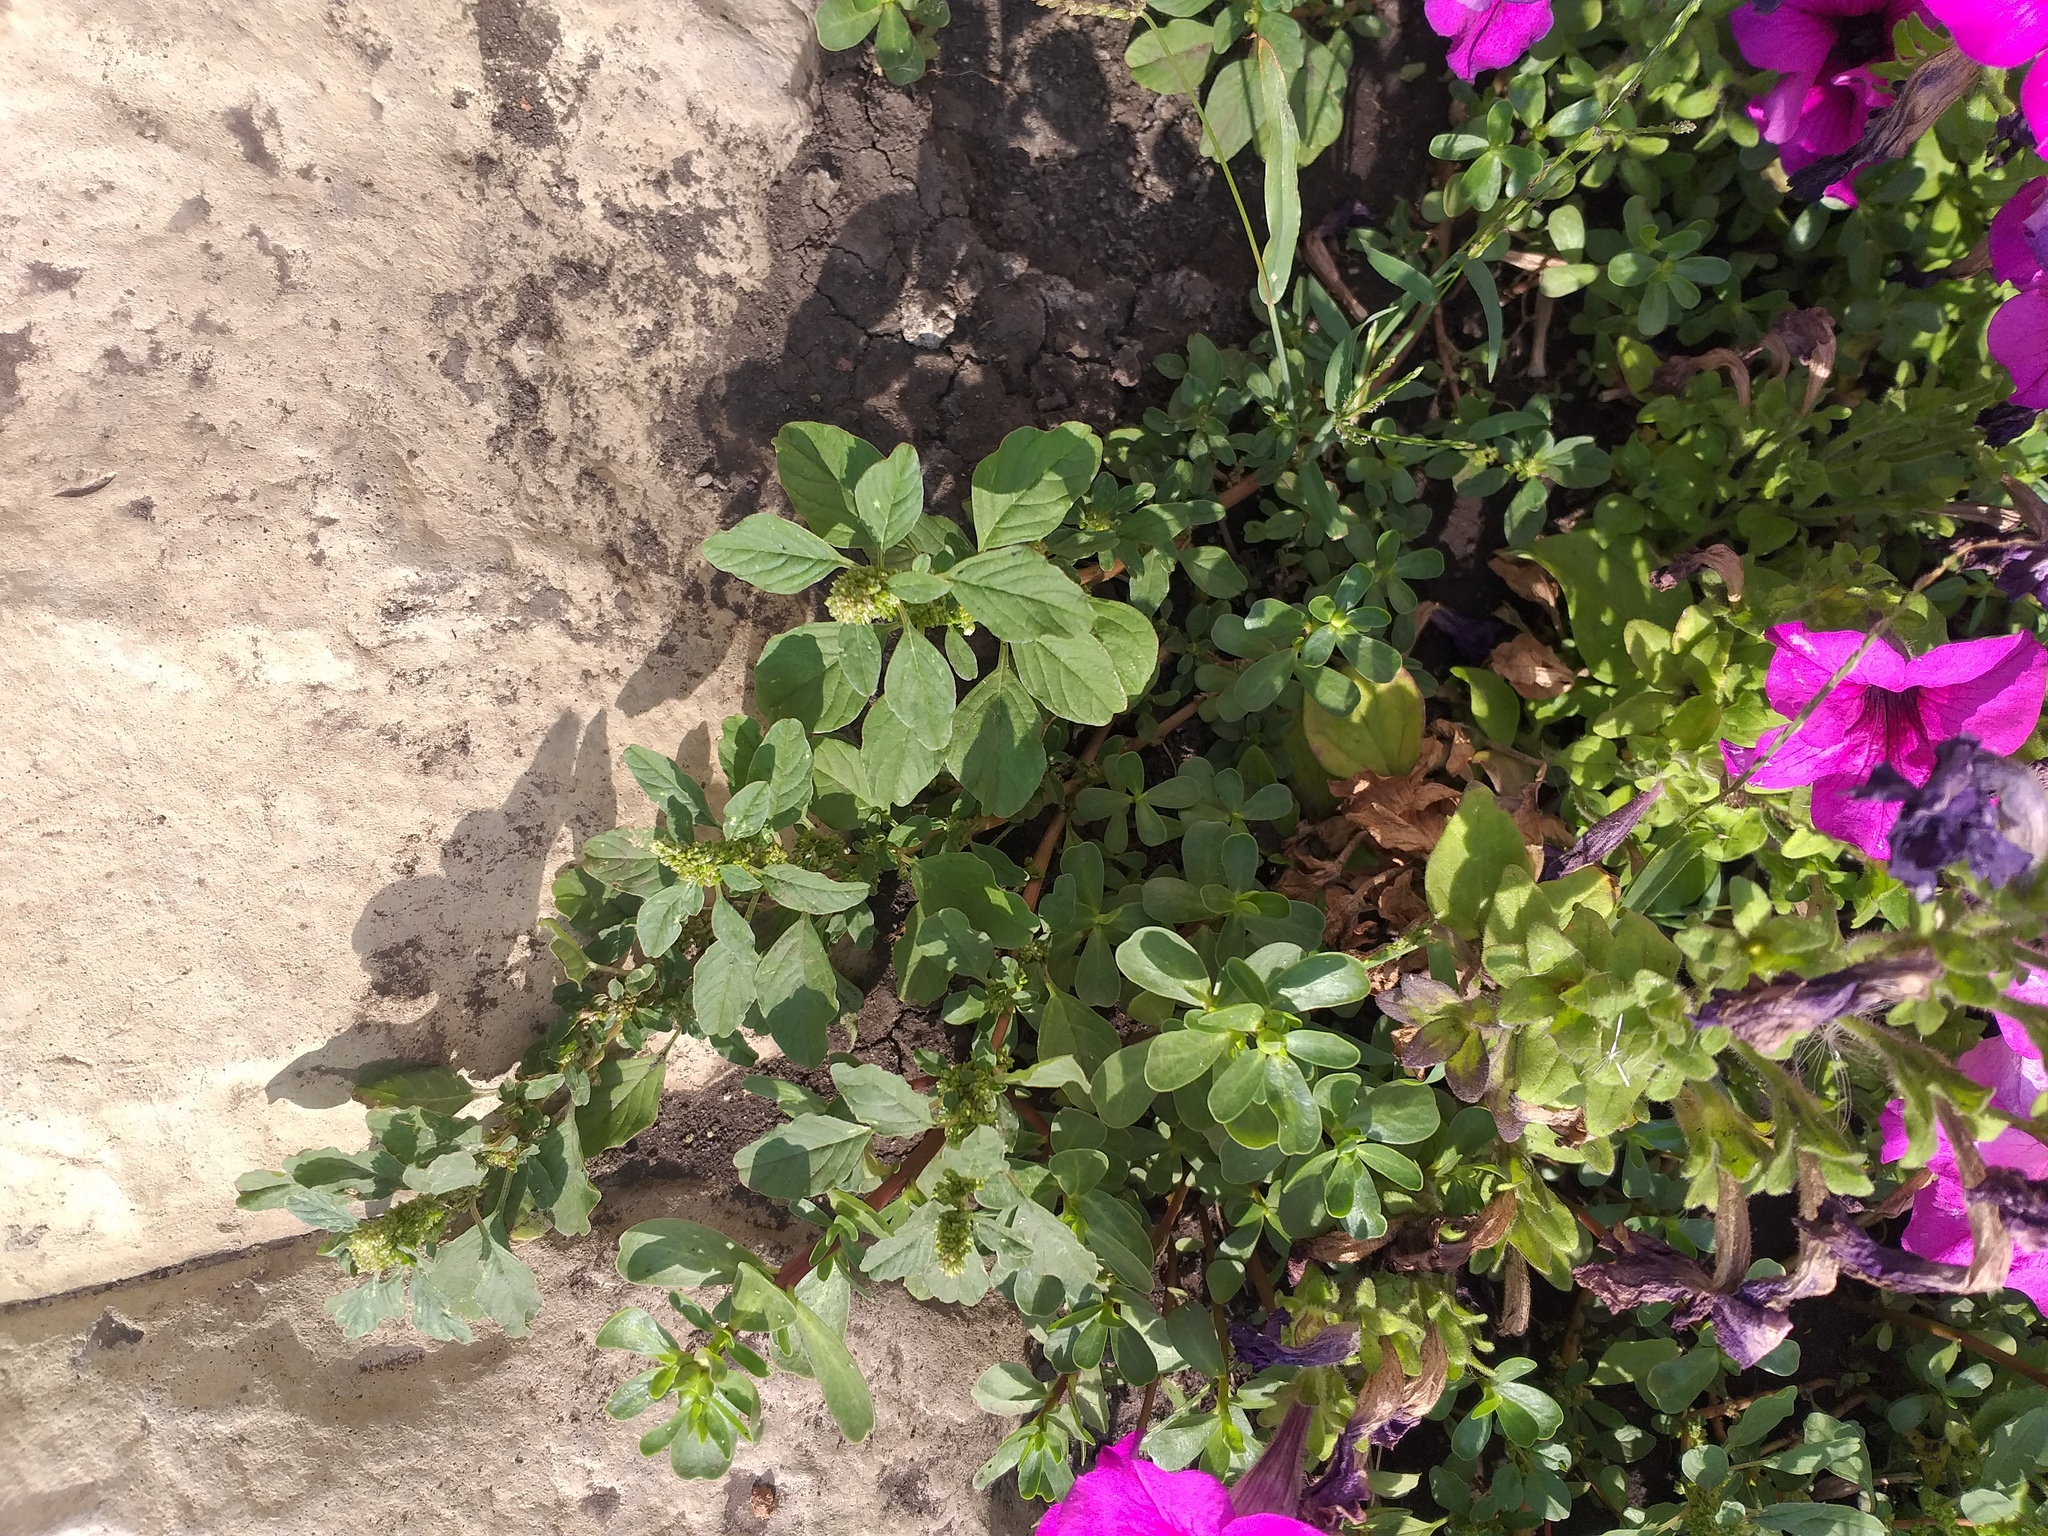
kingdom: Plantae
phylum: Tracheophyta
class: Magnoliopsida
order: Caryophyllales
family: Amaranthaceae
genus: Amaranthus
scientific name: Amaranthus blitum
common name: Purple amaranth
